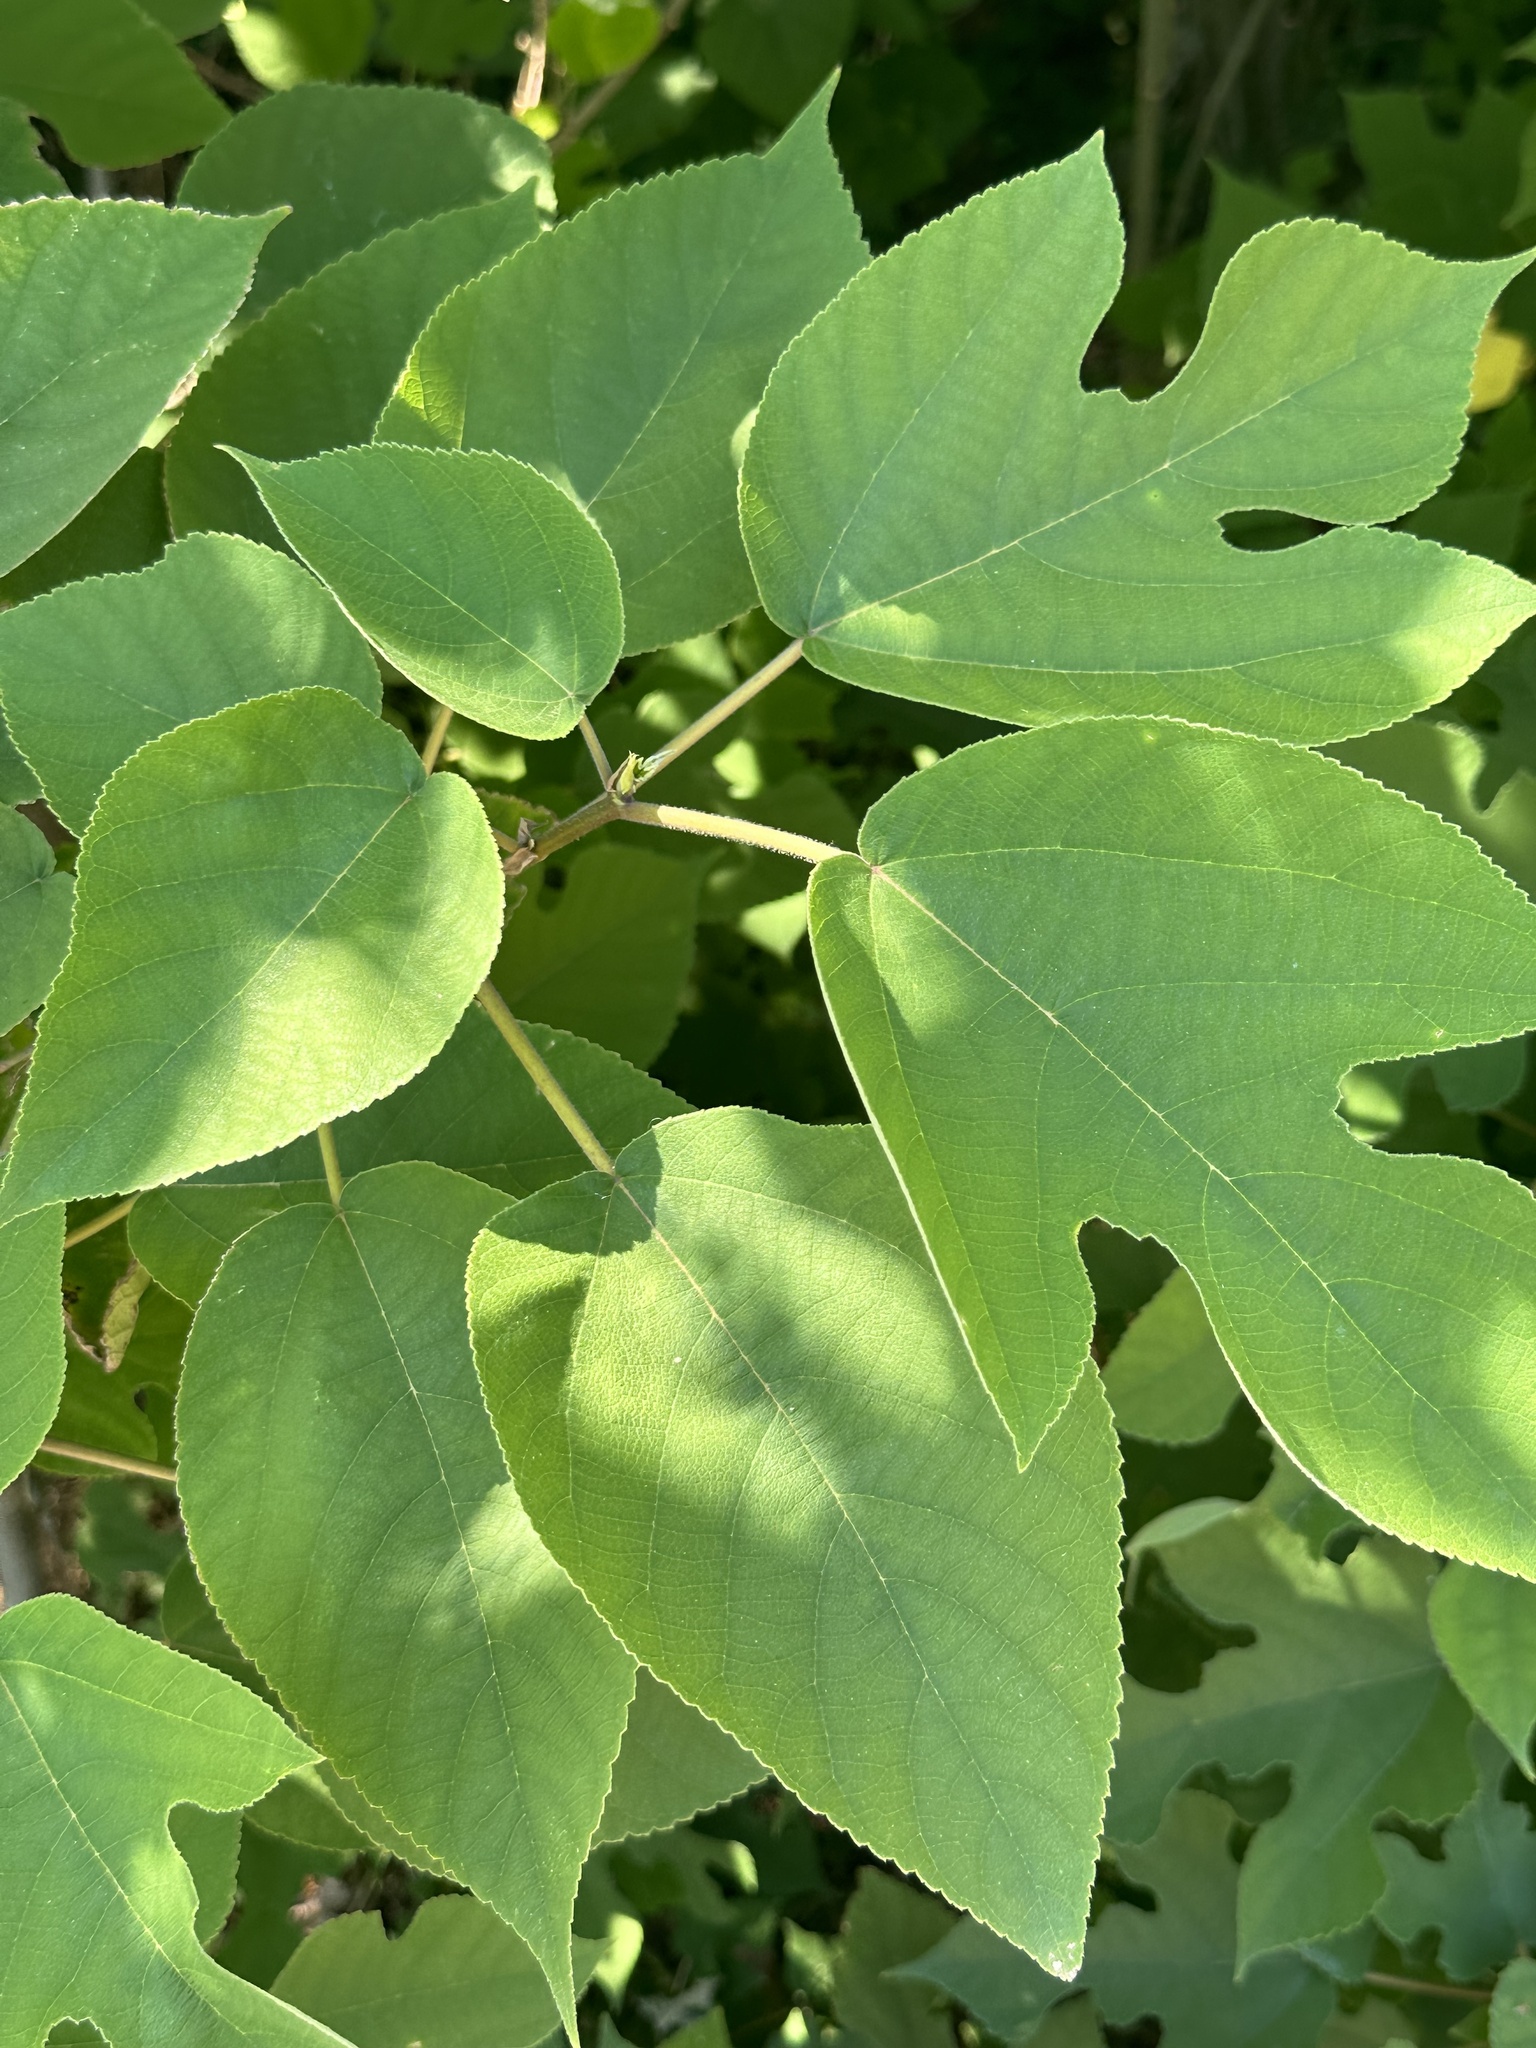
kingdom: Plantae
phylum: Tracheophyta
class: Magnoliopsida
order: Rosales
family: Moraceae
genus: Broussonetia
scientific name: Broussonetia papyrifera
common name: Paper mulberry
